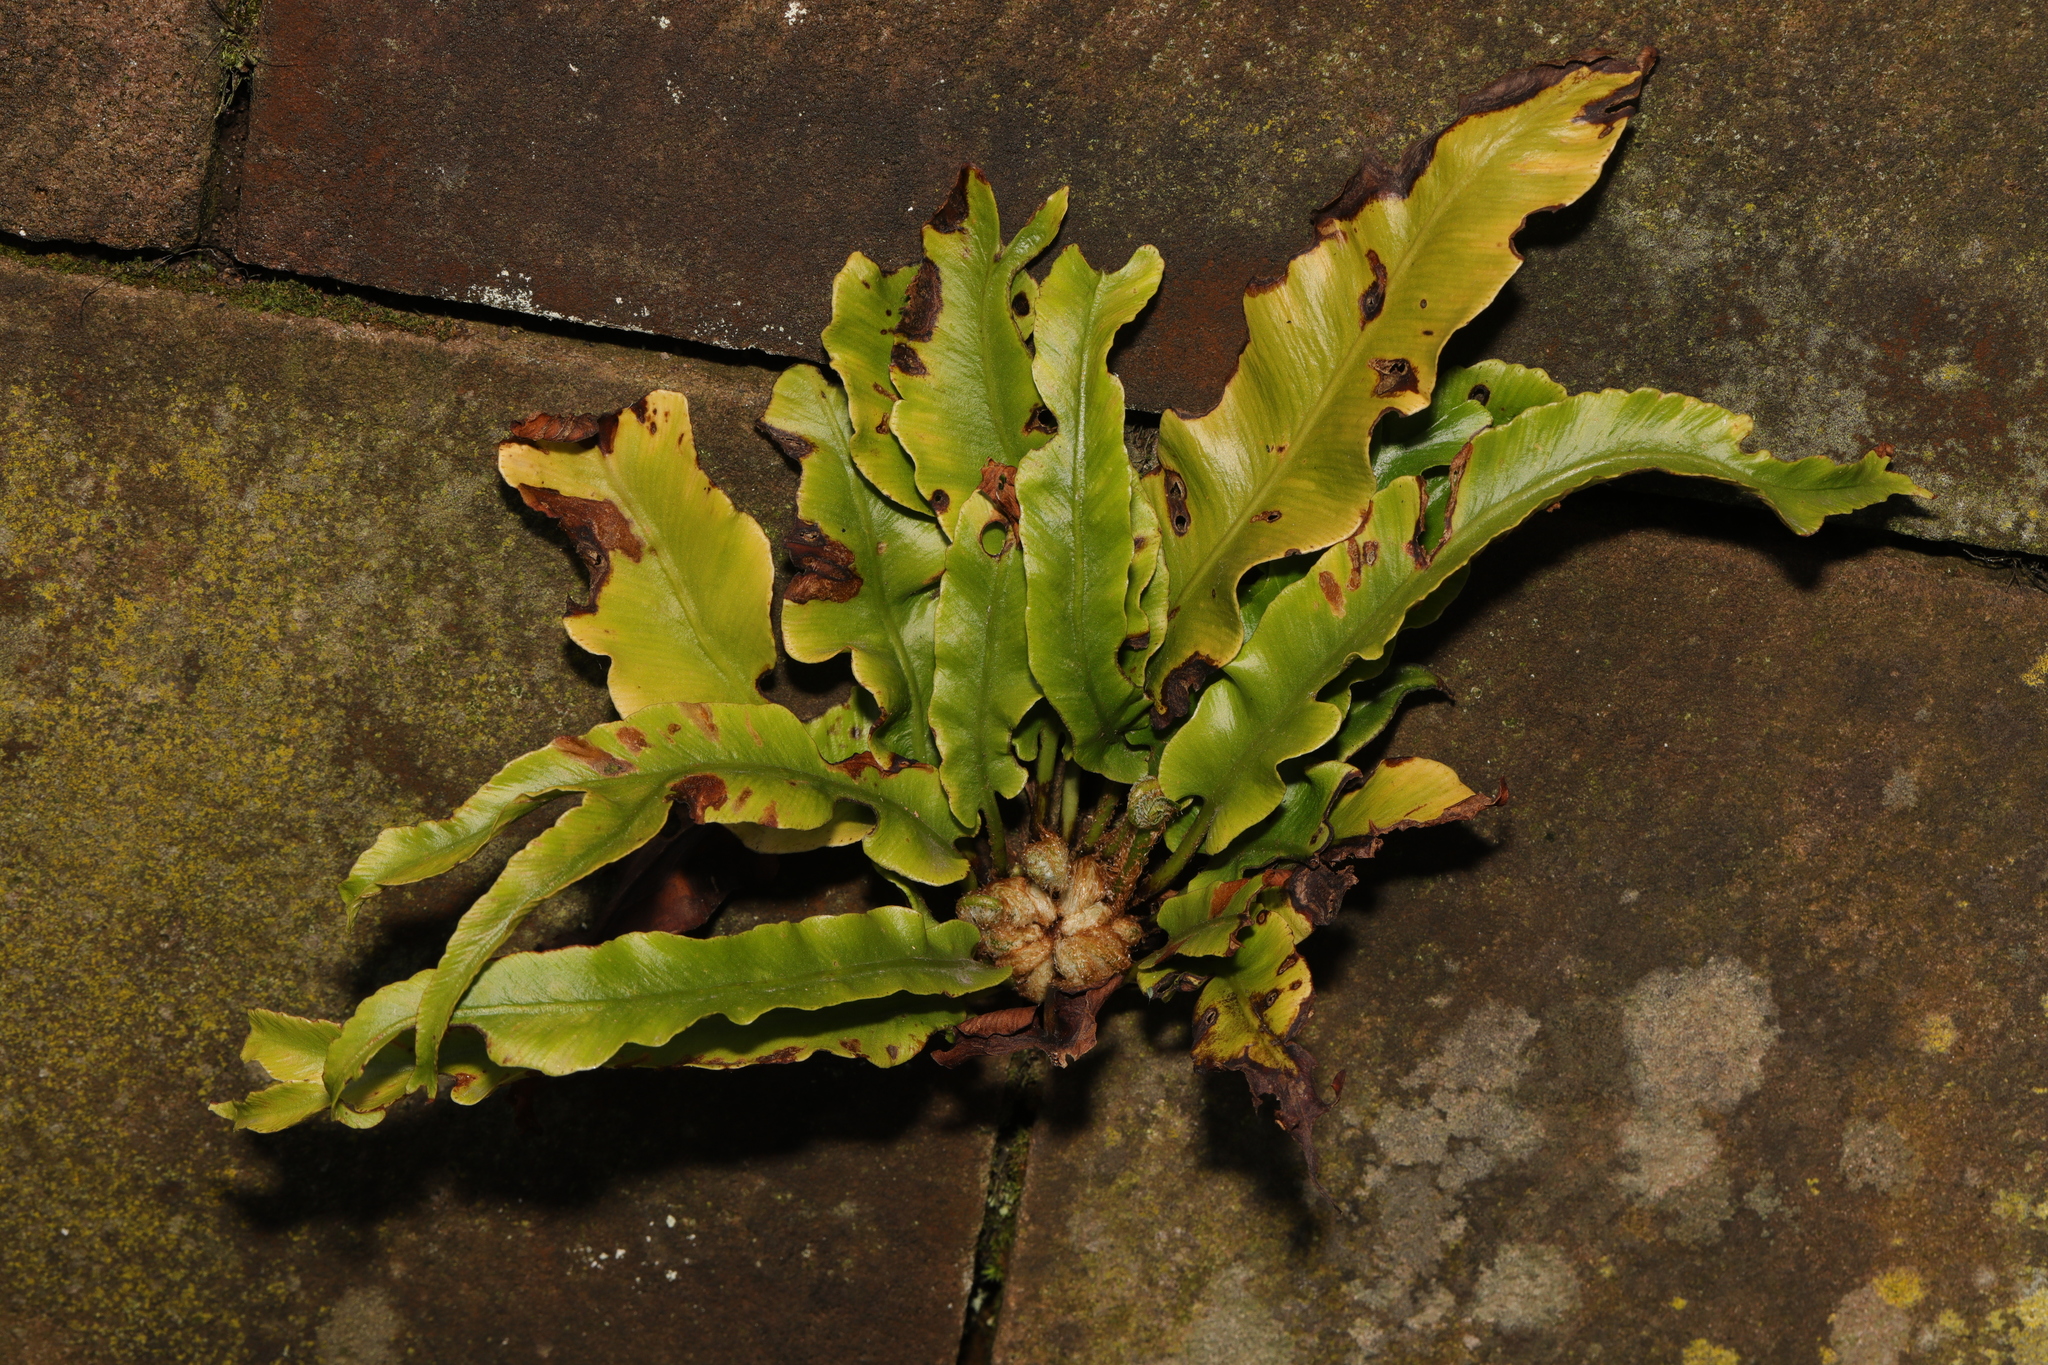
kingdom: Plantae
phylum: Tracheophyta
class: Polypodiopsida
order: Polypodiales
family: Aspleniaceae
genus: Asplenium
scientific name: Asplenium scolopendrium
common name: Hart's-tongue fern
